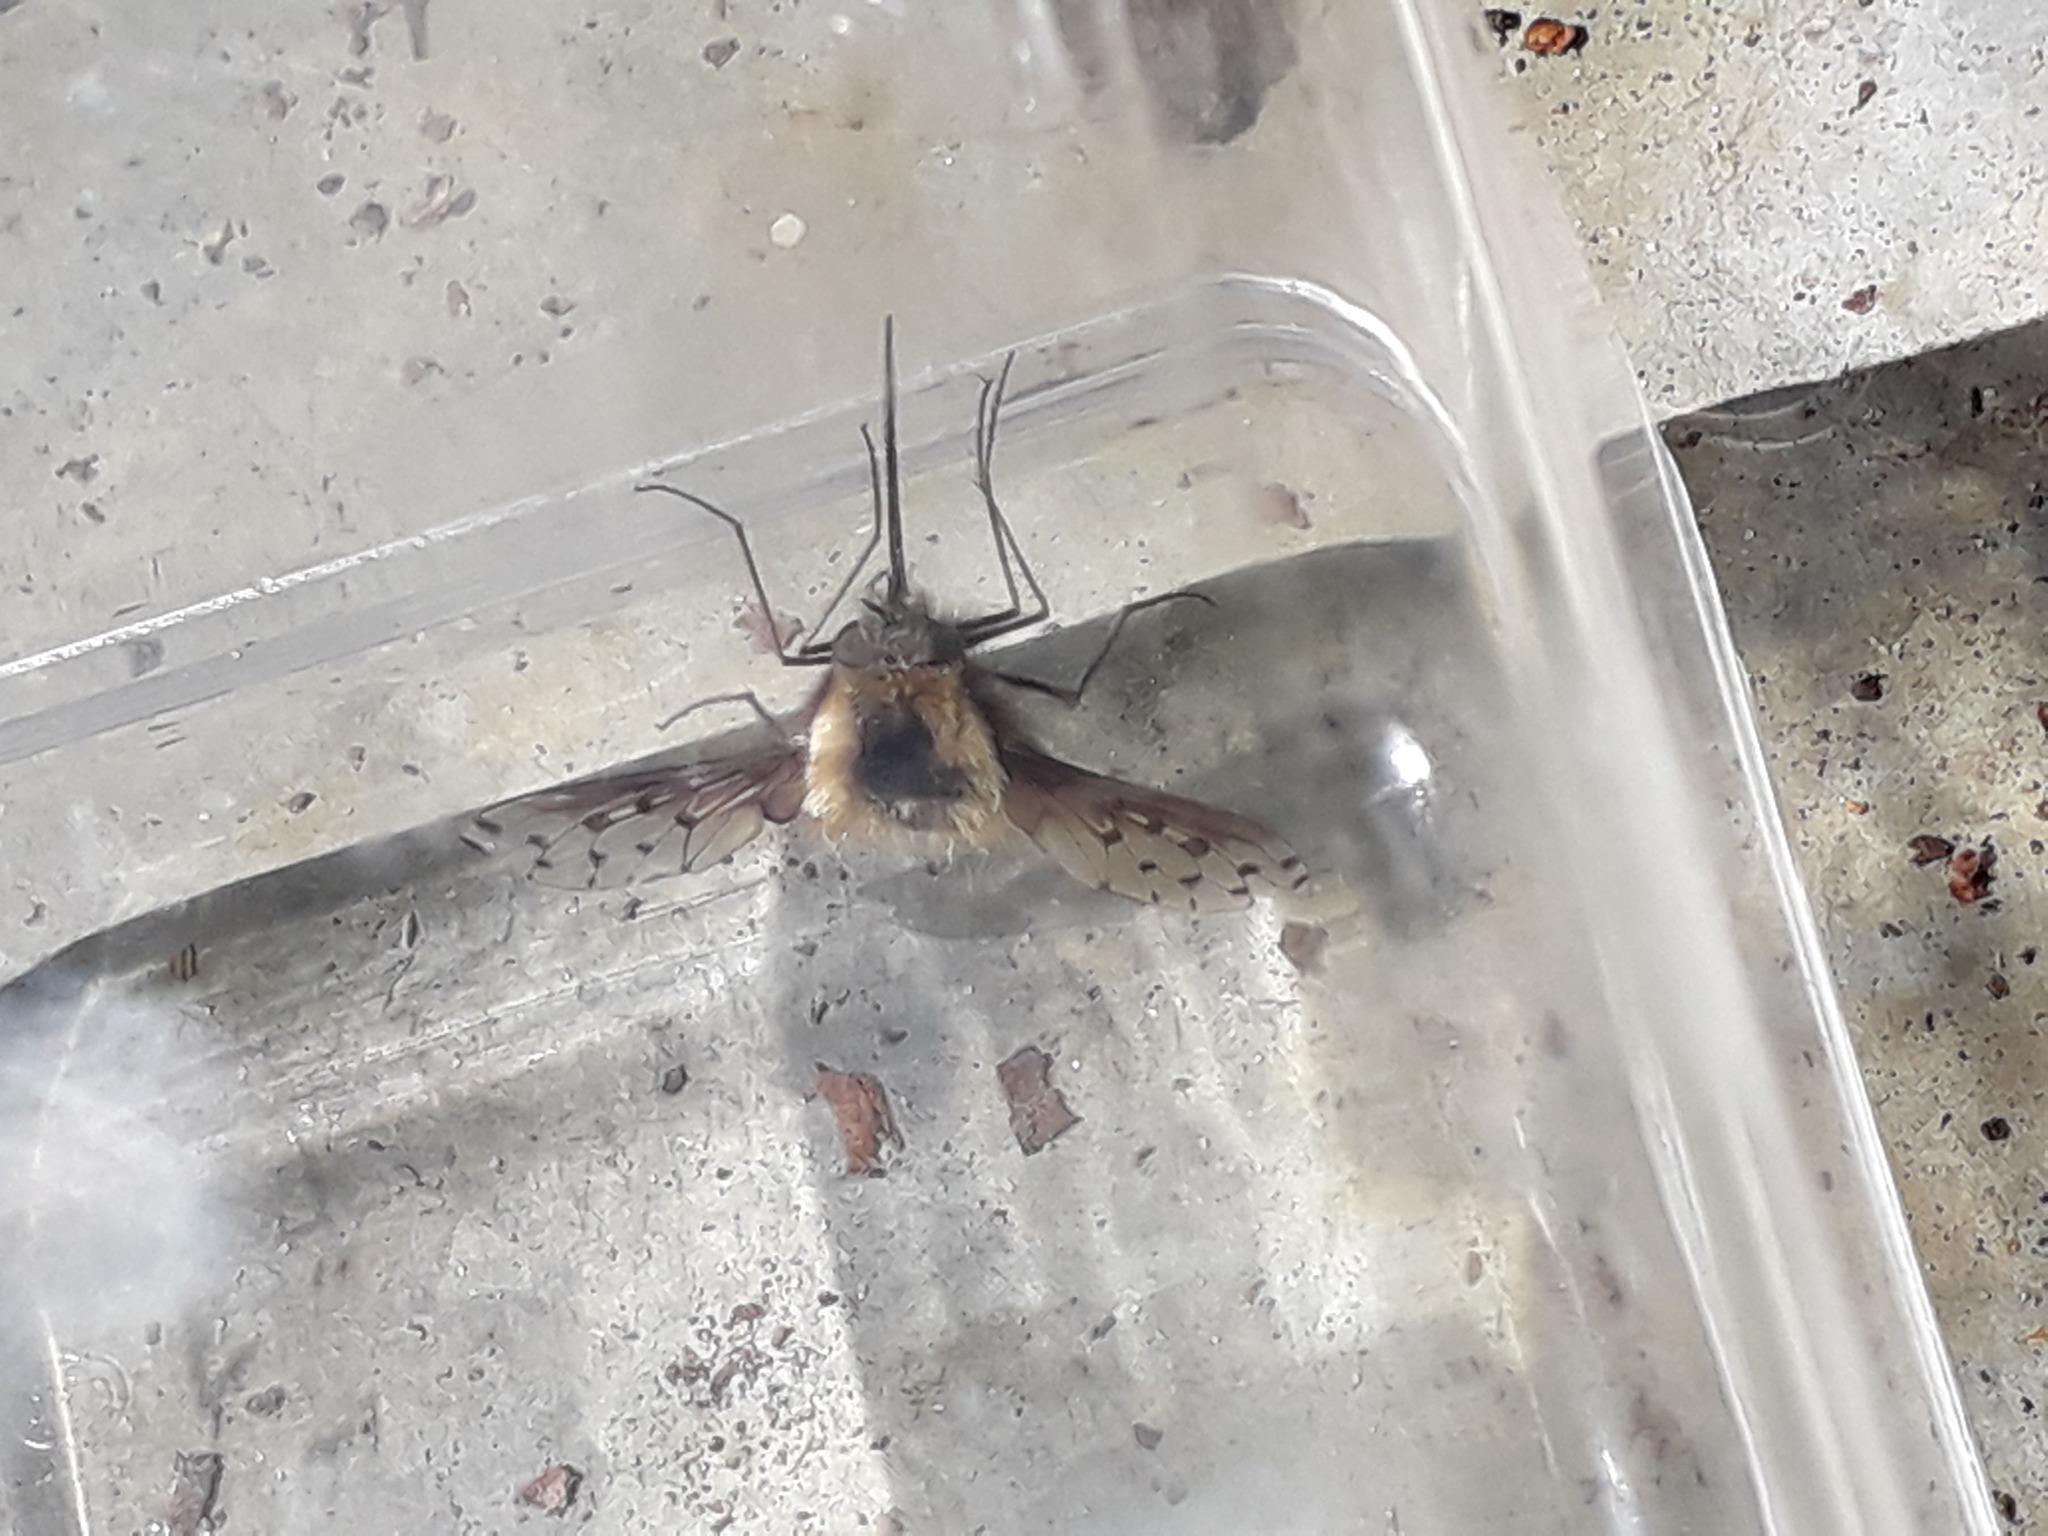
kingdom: Animalia
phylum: Arthropoda
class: Insecta
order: Diptera
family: Bombyliidae
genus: Bombylius
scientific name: Bombylius discolor
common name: Dotted bee-fly
